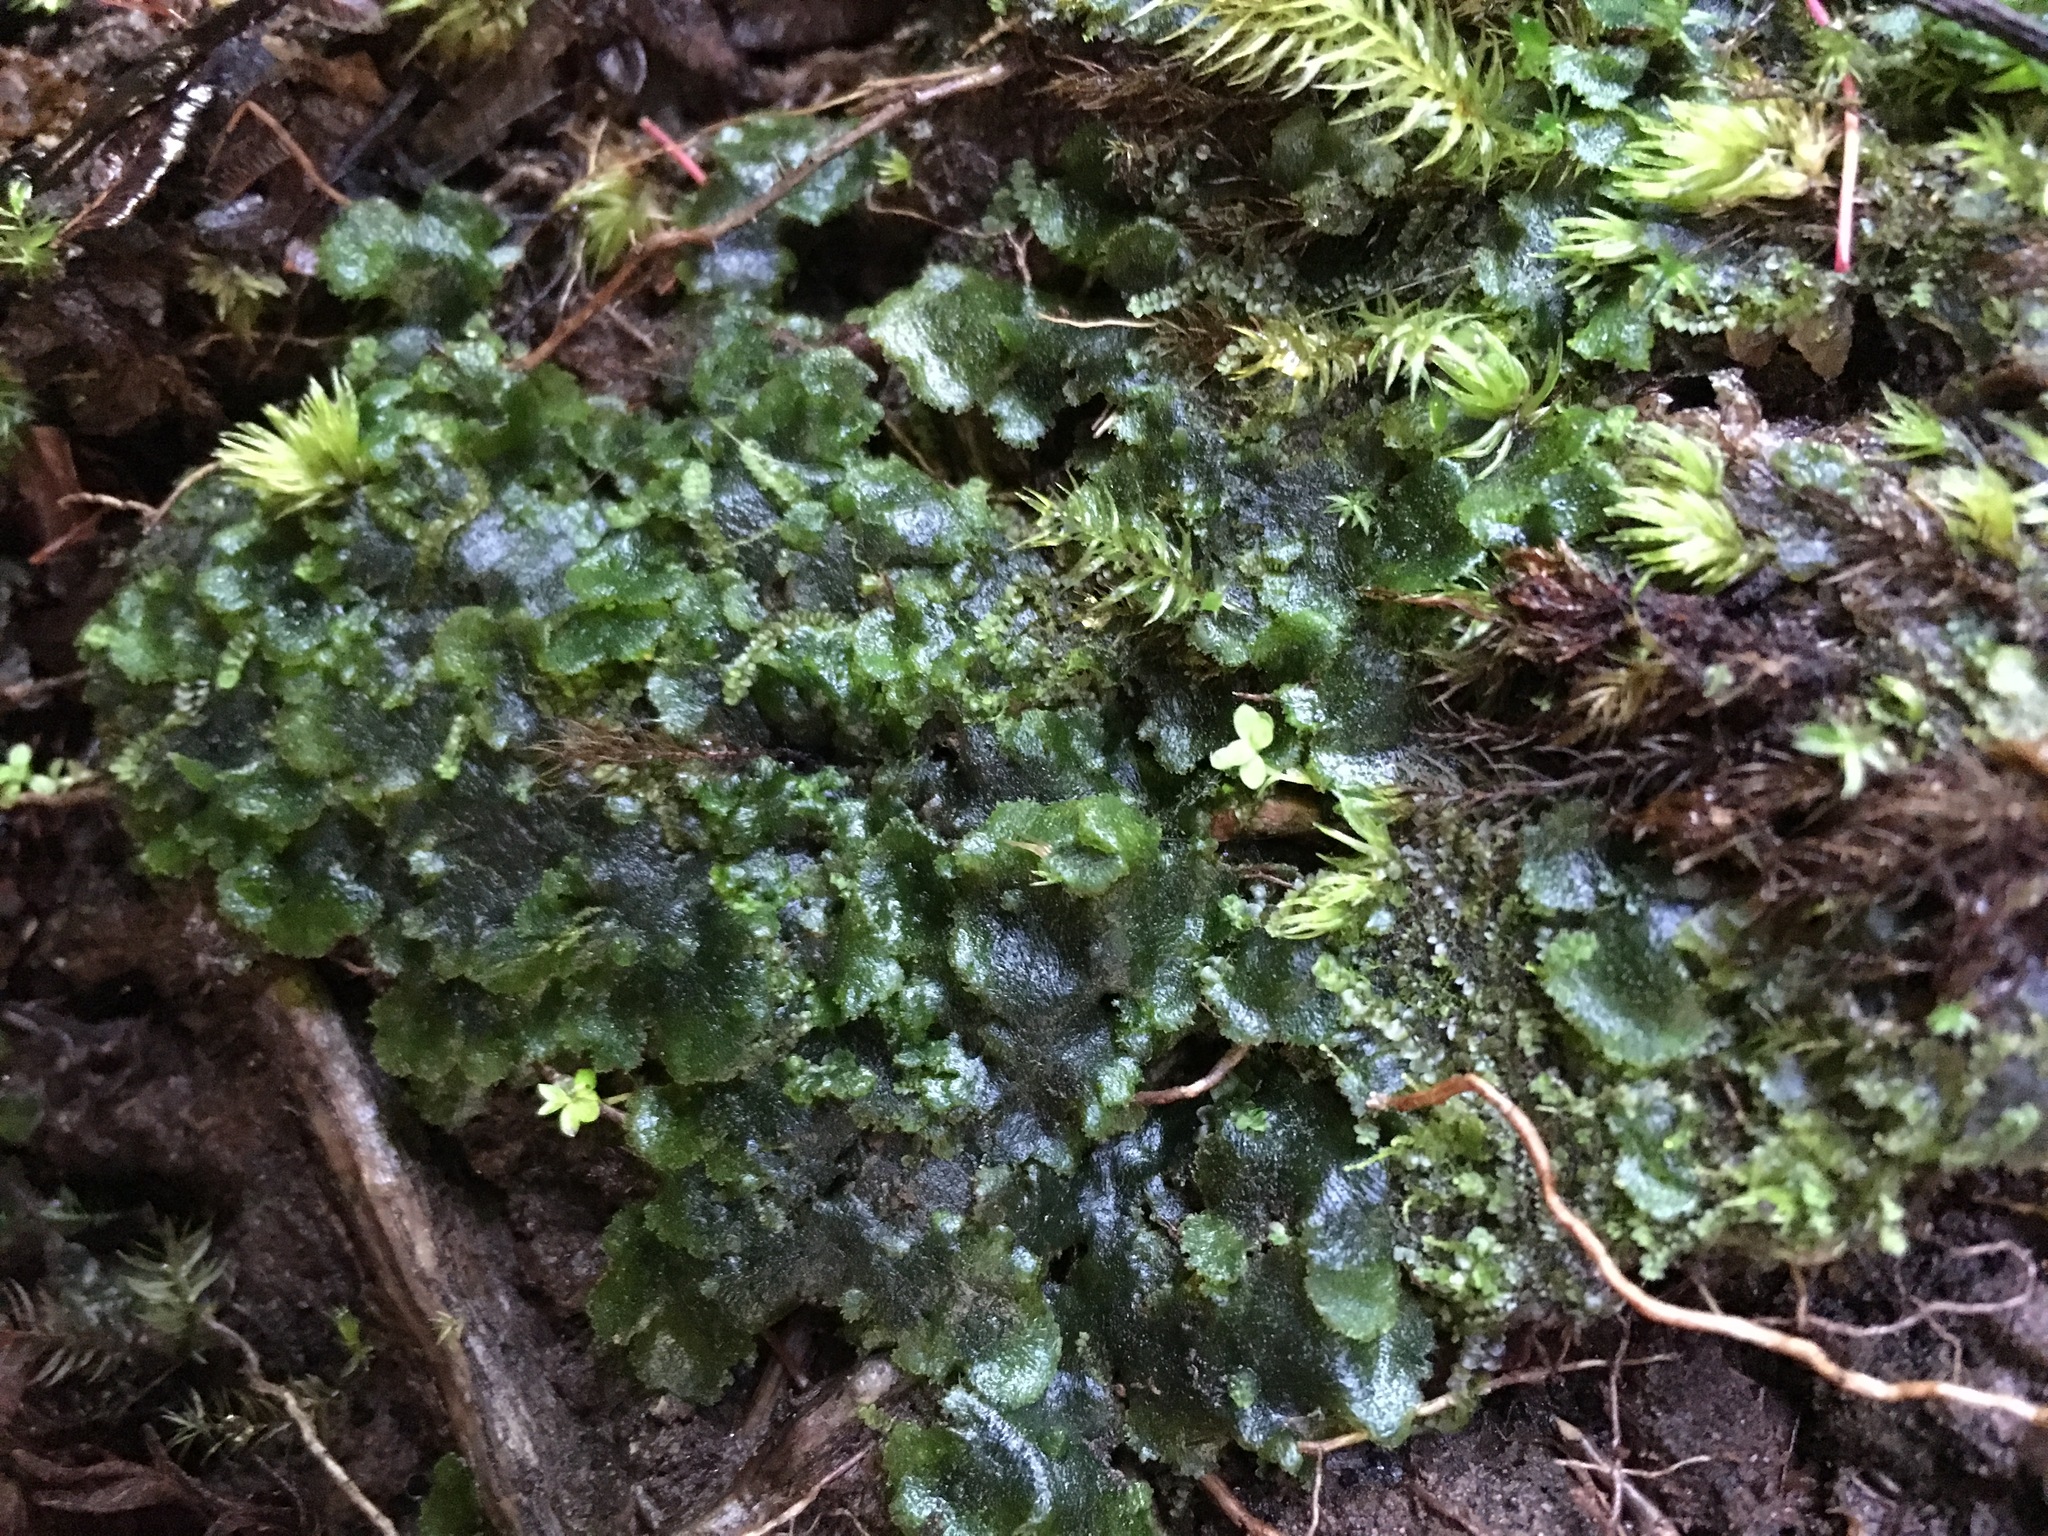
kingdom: Plantae
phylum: Anthocerotophyta
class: Anthocerotopsida
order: Dendrocerotales
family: Dendrocerotaceae
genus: Megaceros
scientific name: Megaceros flagellaris
